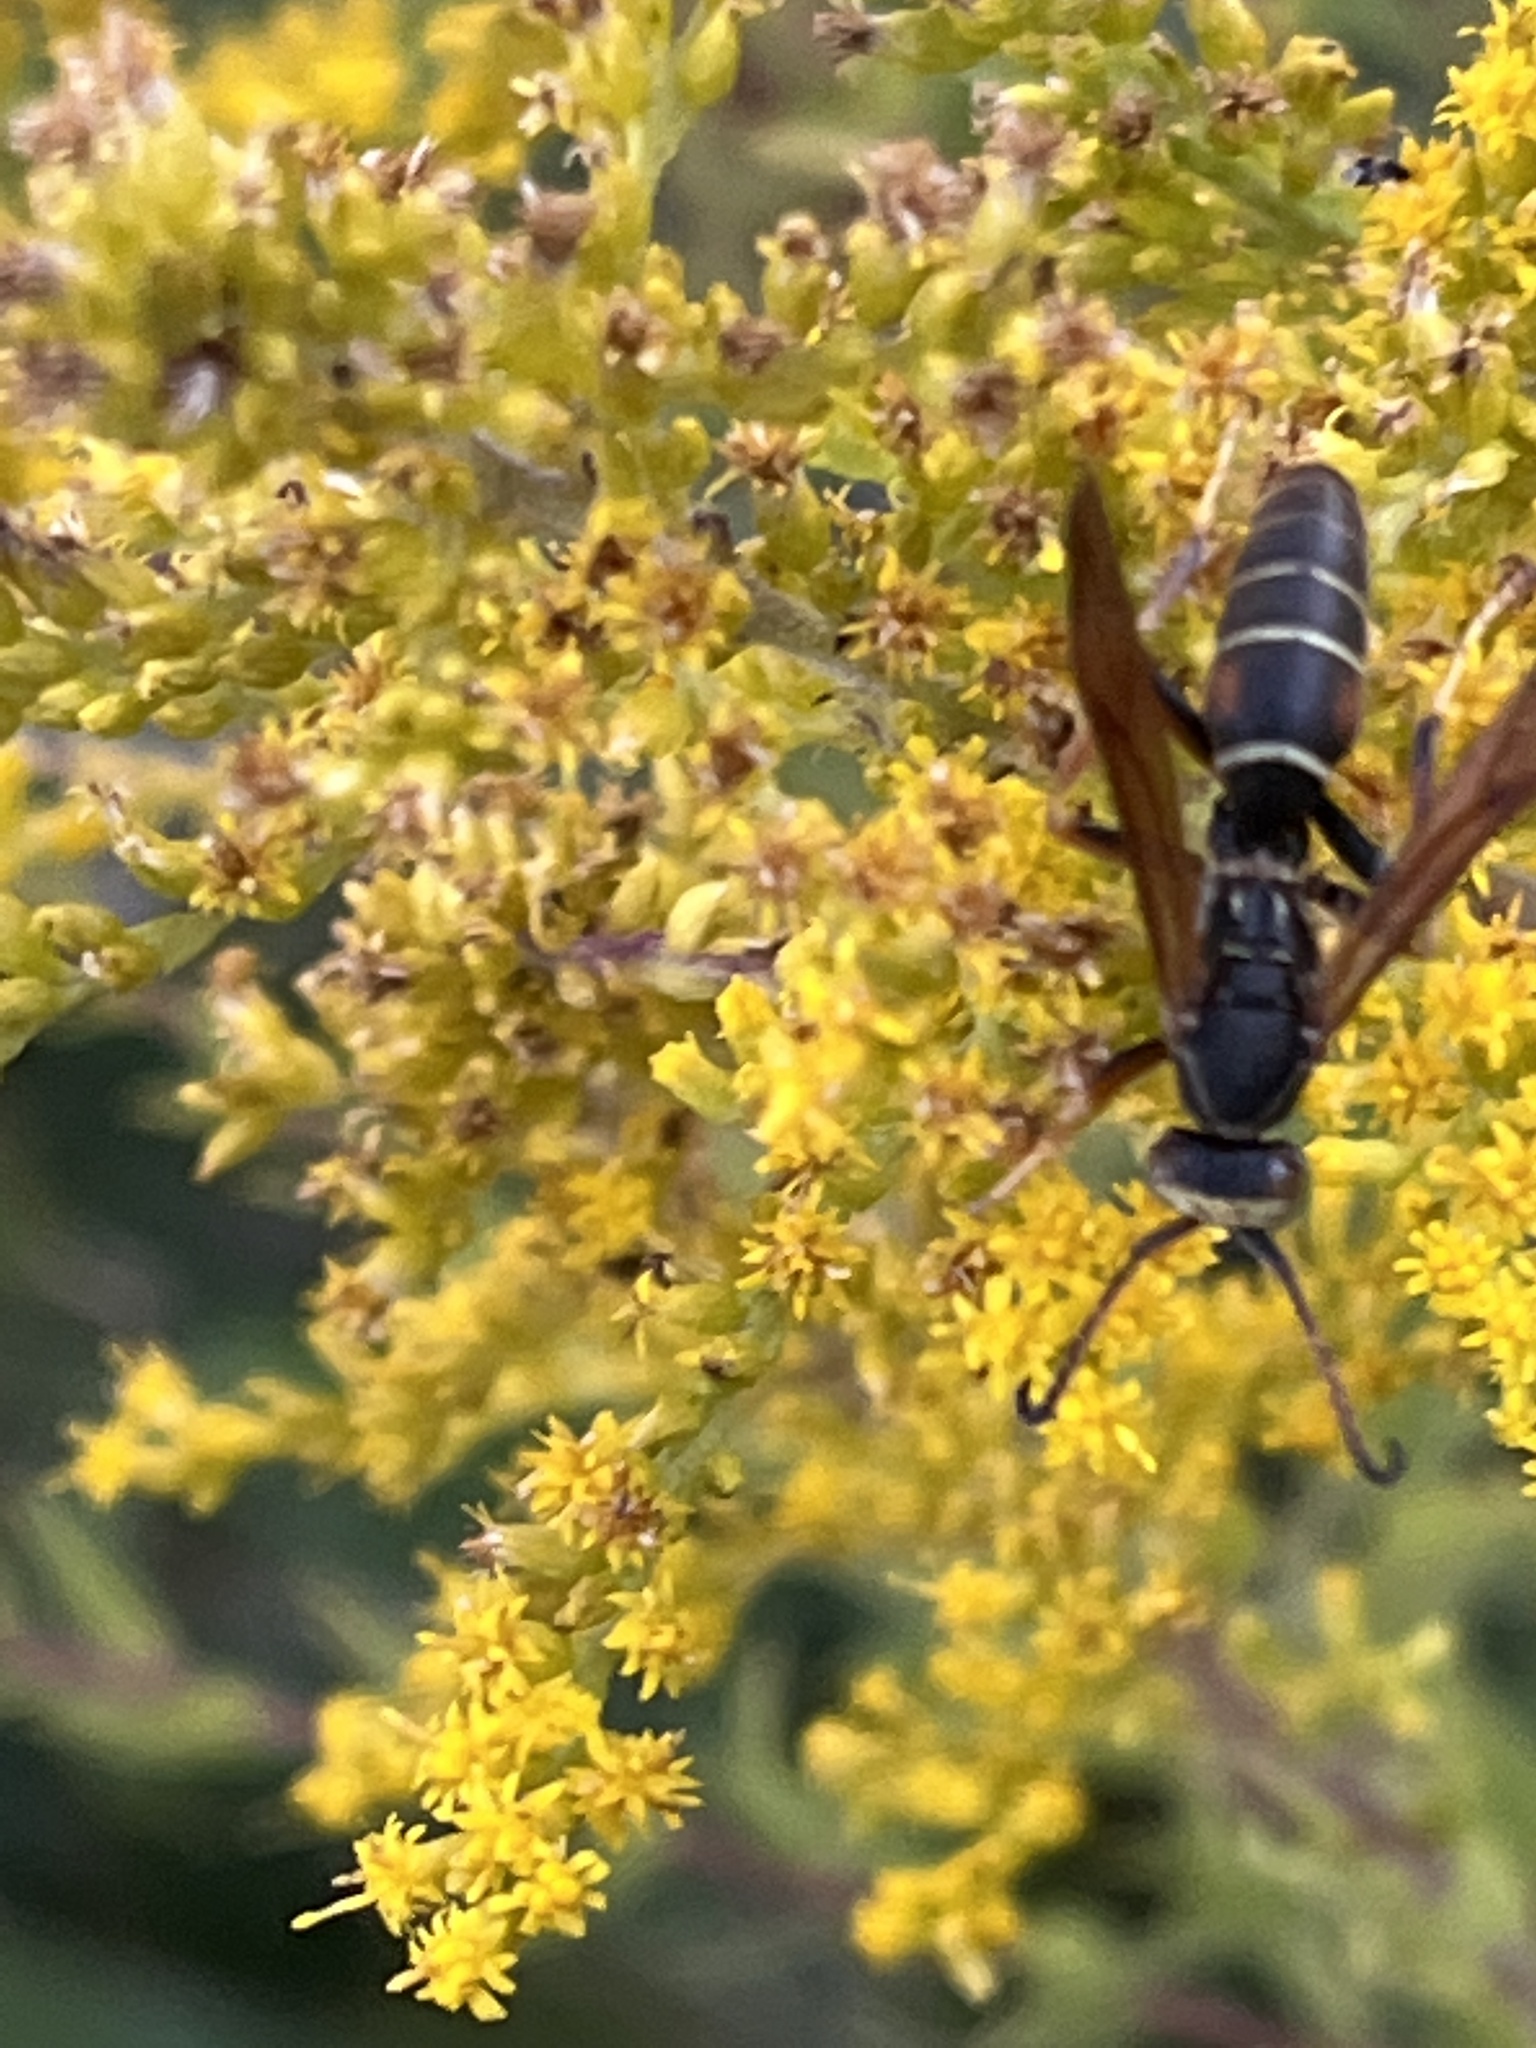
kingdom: Animalia
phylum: Arthropoda
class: Insecta
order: Hymenoptera
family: Eumenidae
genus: Polistes
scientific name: Polistes fuscatus
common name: Dark paper wasp
